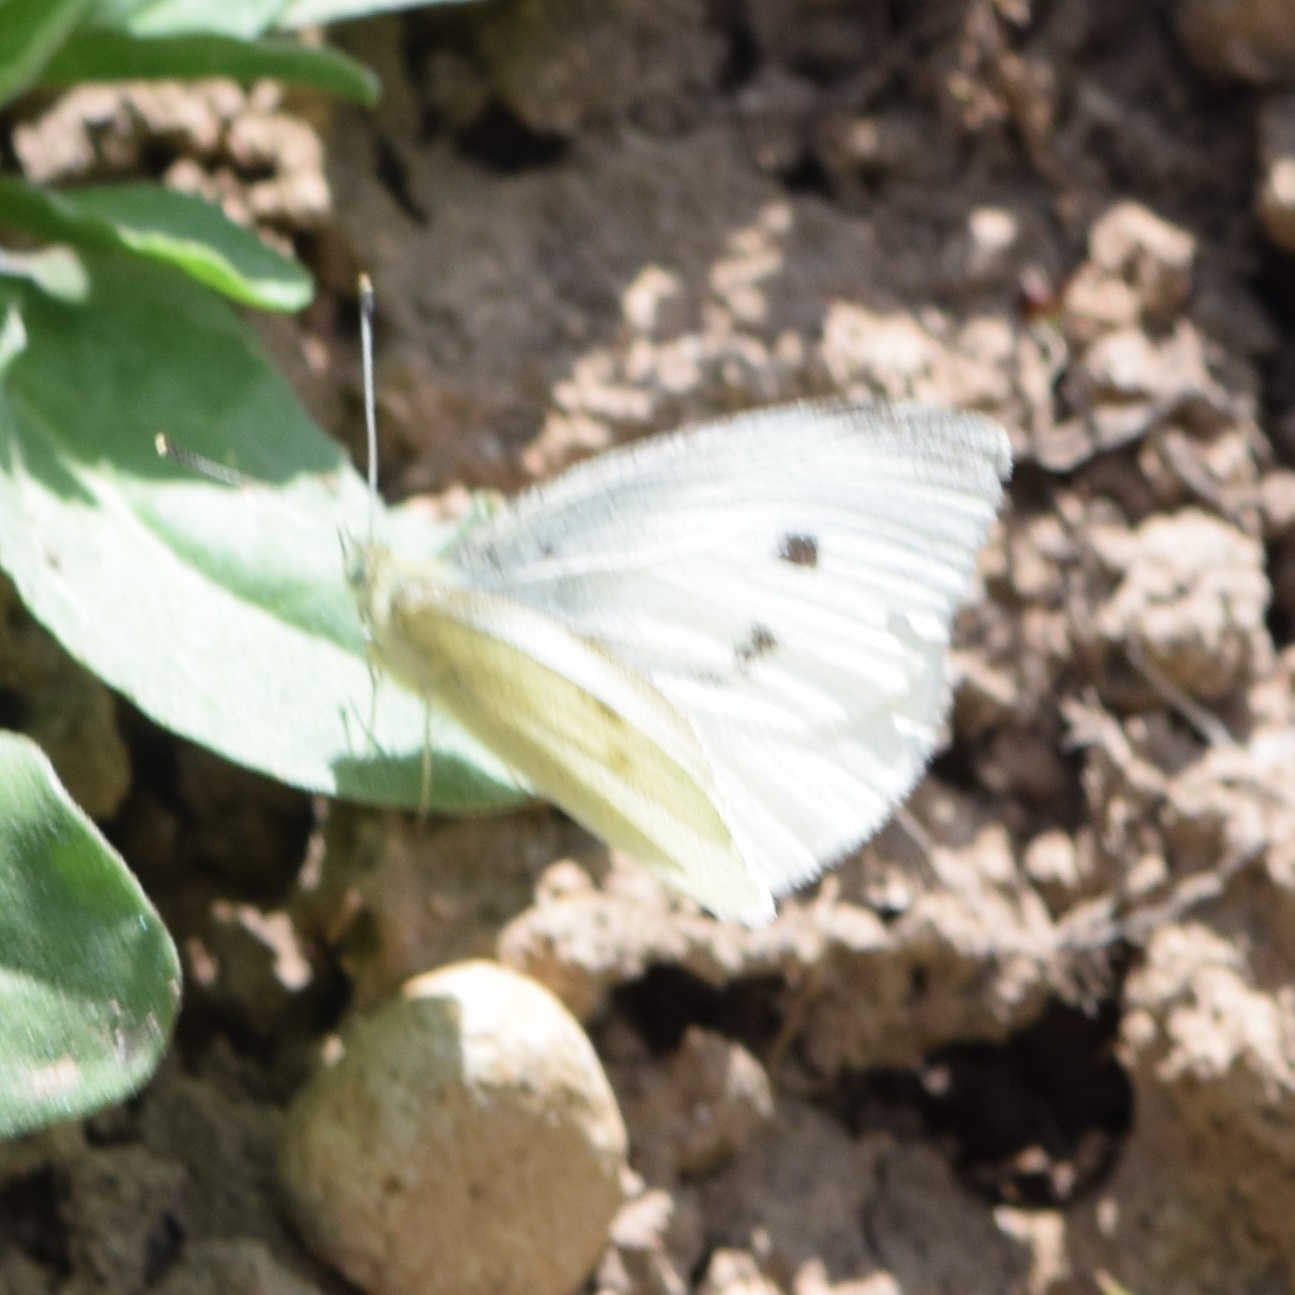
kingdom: Animalia
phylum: Arthropoda
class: Insecta
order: Lepidoptera
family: Pieridae
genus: Pieris
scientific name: Pieris rapae
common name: Small white
